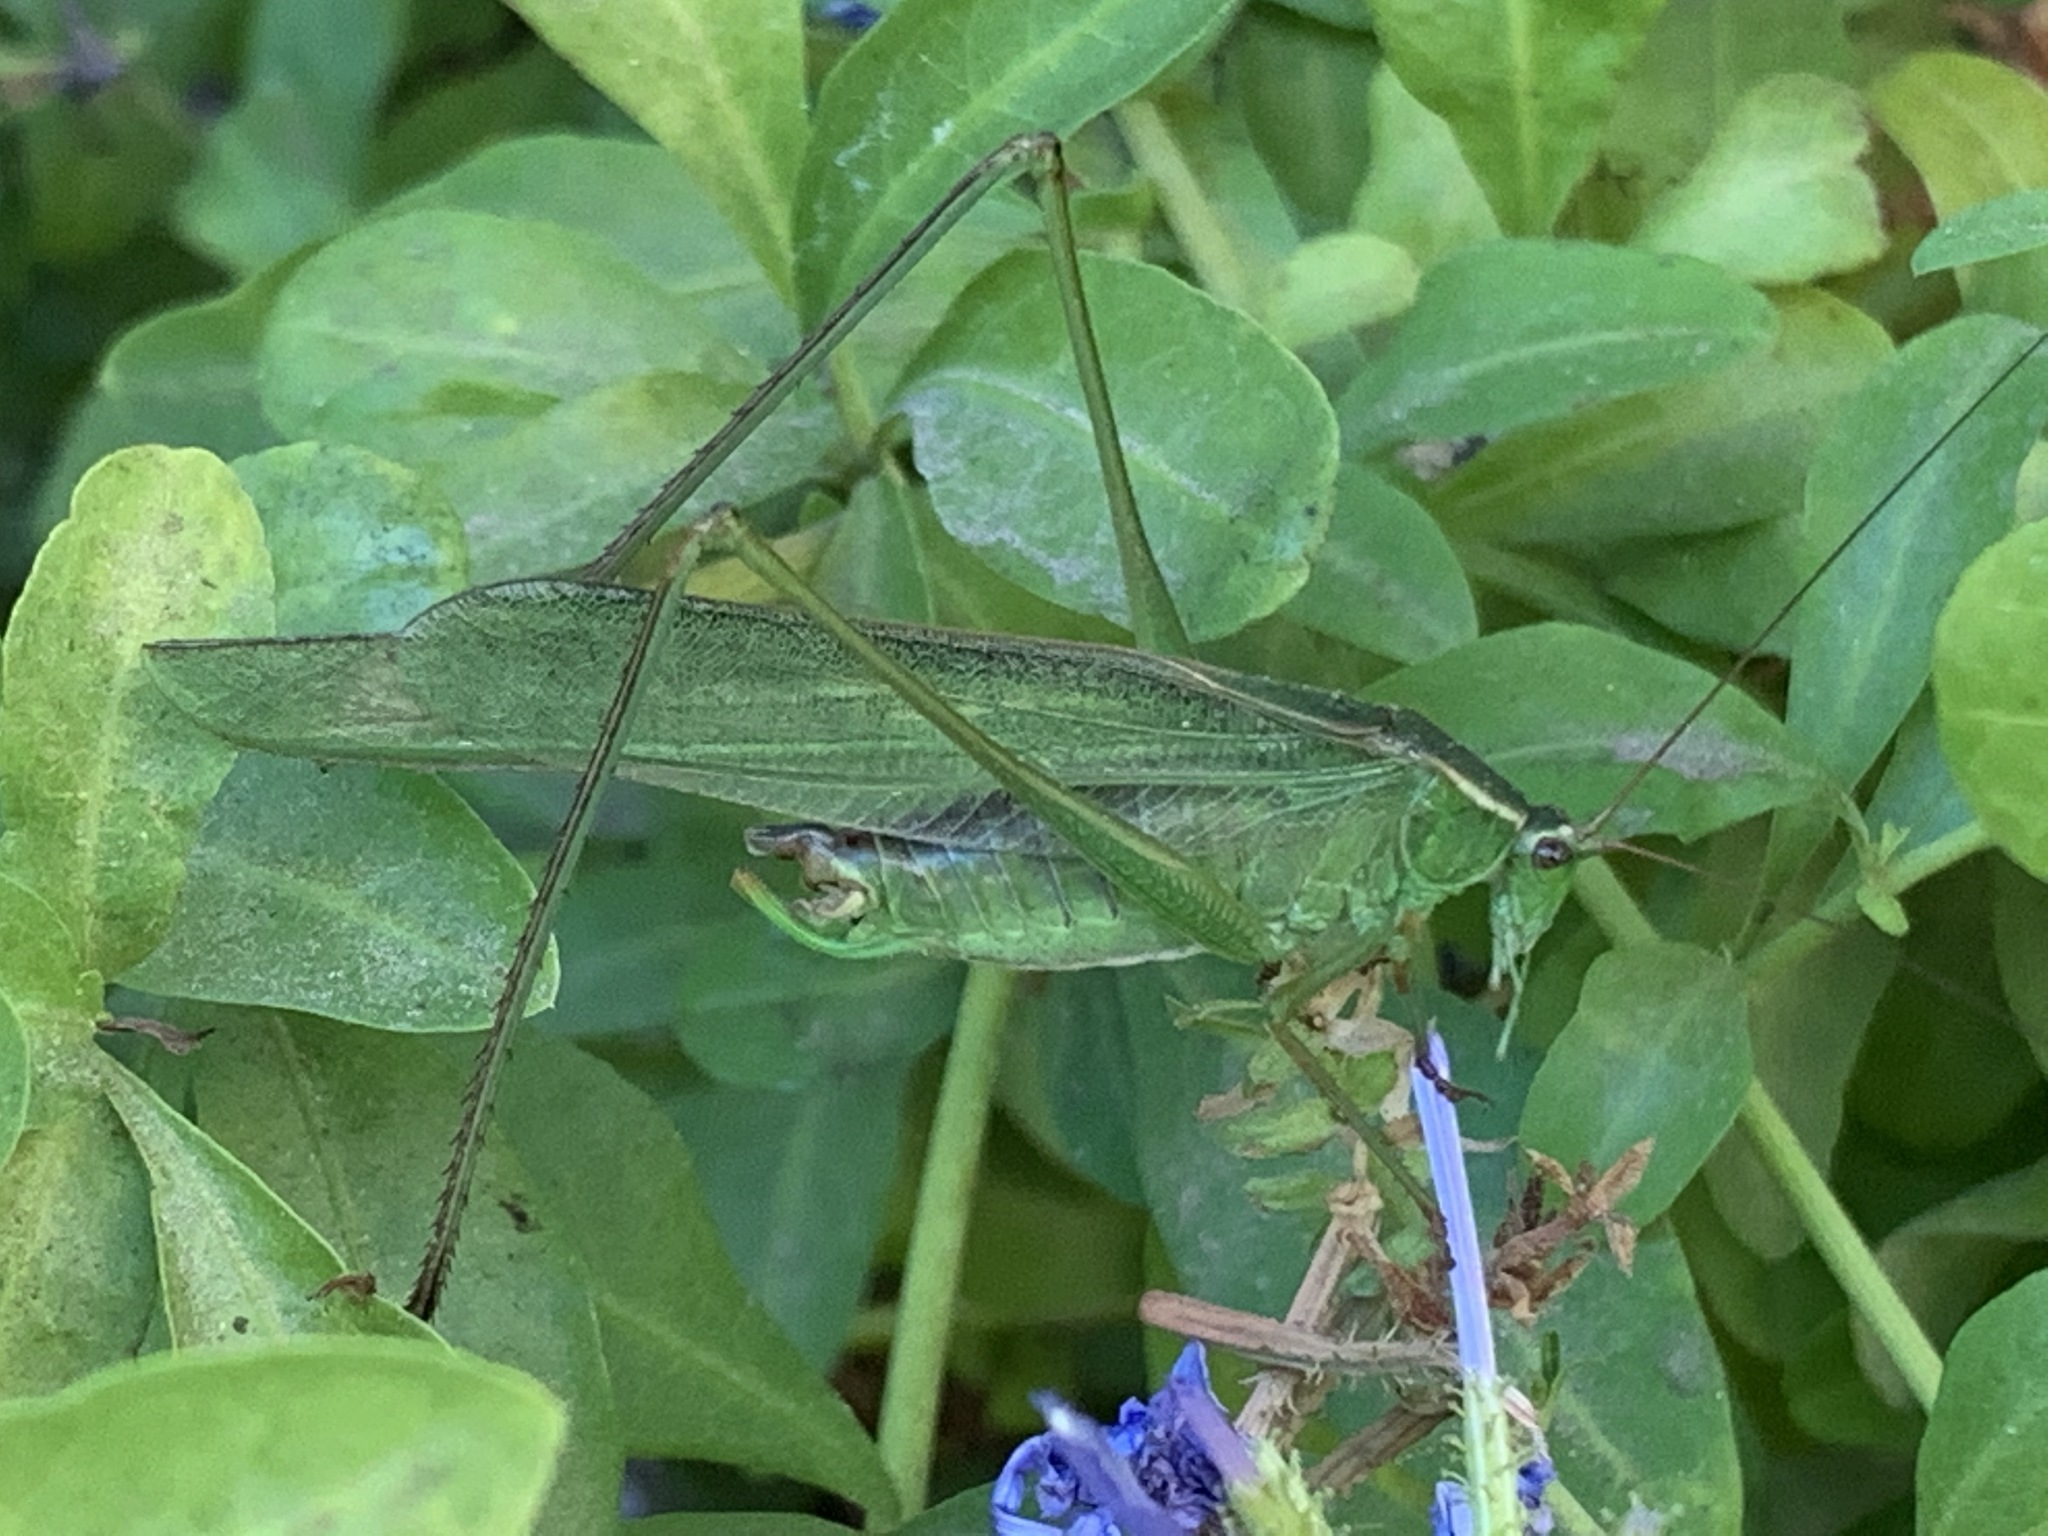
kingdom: Animalia
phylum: Arthropoda
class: Insecta
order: Orthoptera
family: Tettigoniidae
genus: Scudderia
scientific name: Scudderia mexicana
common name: Mexican bush katydid
